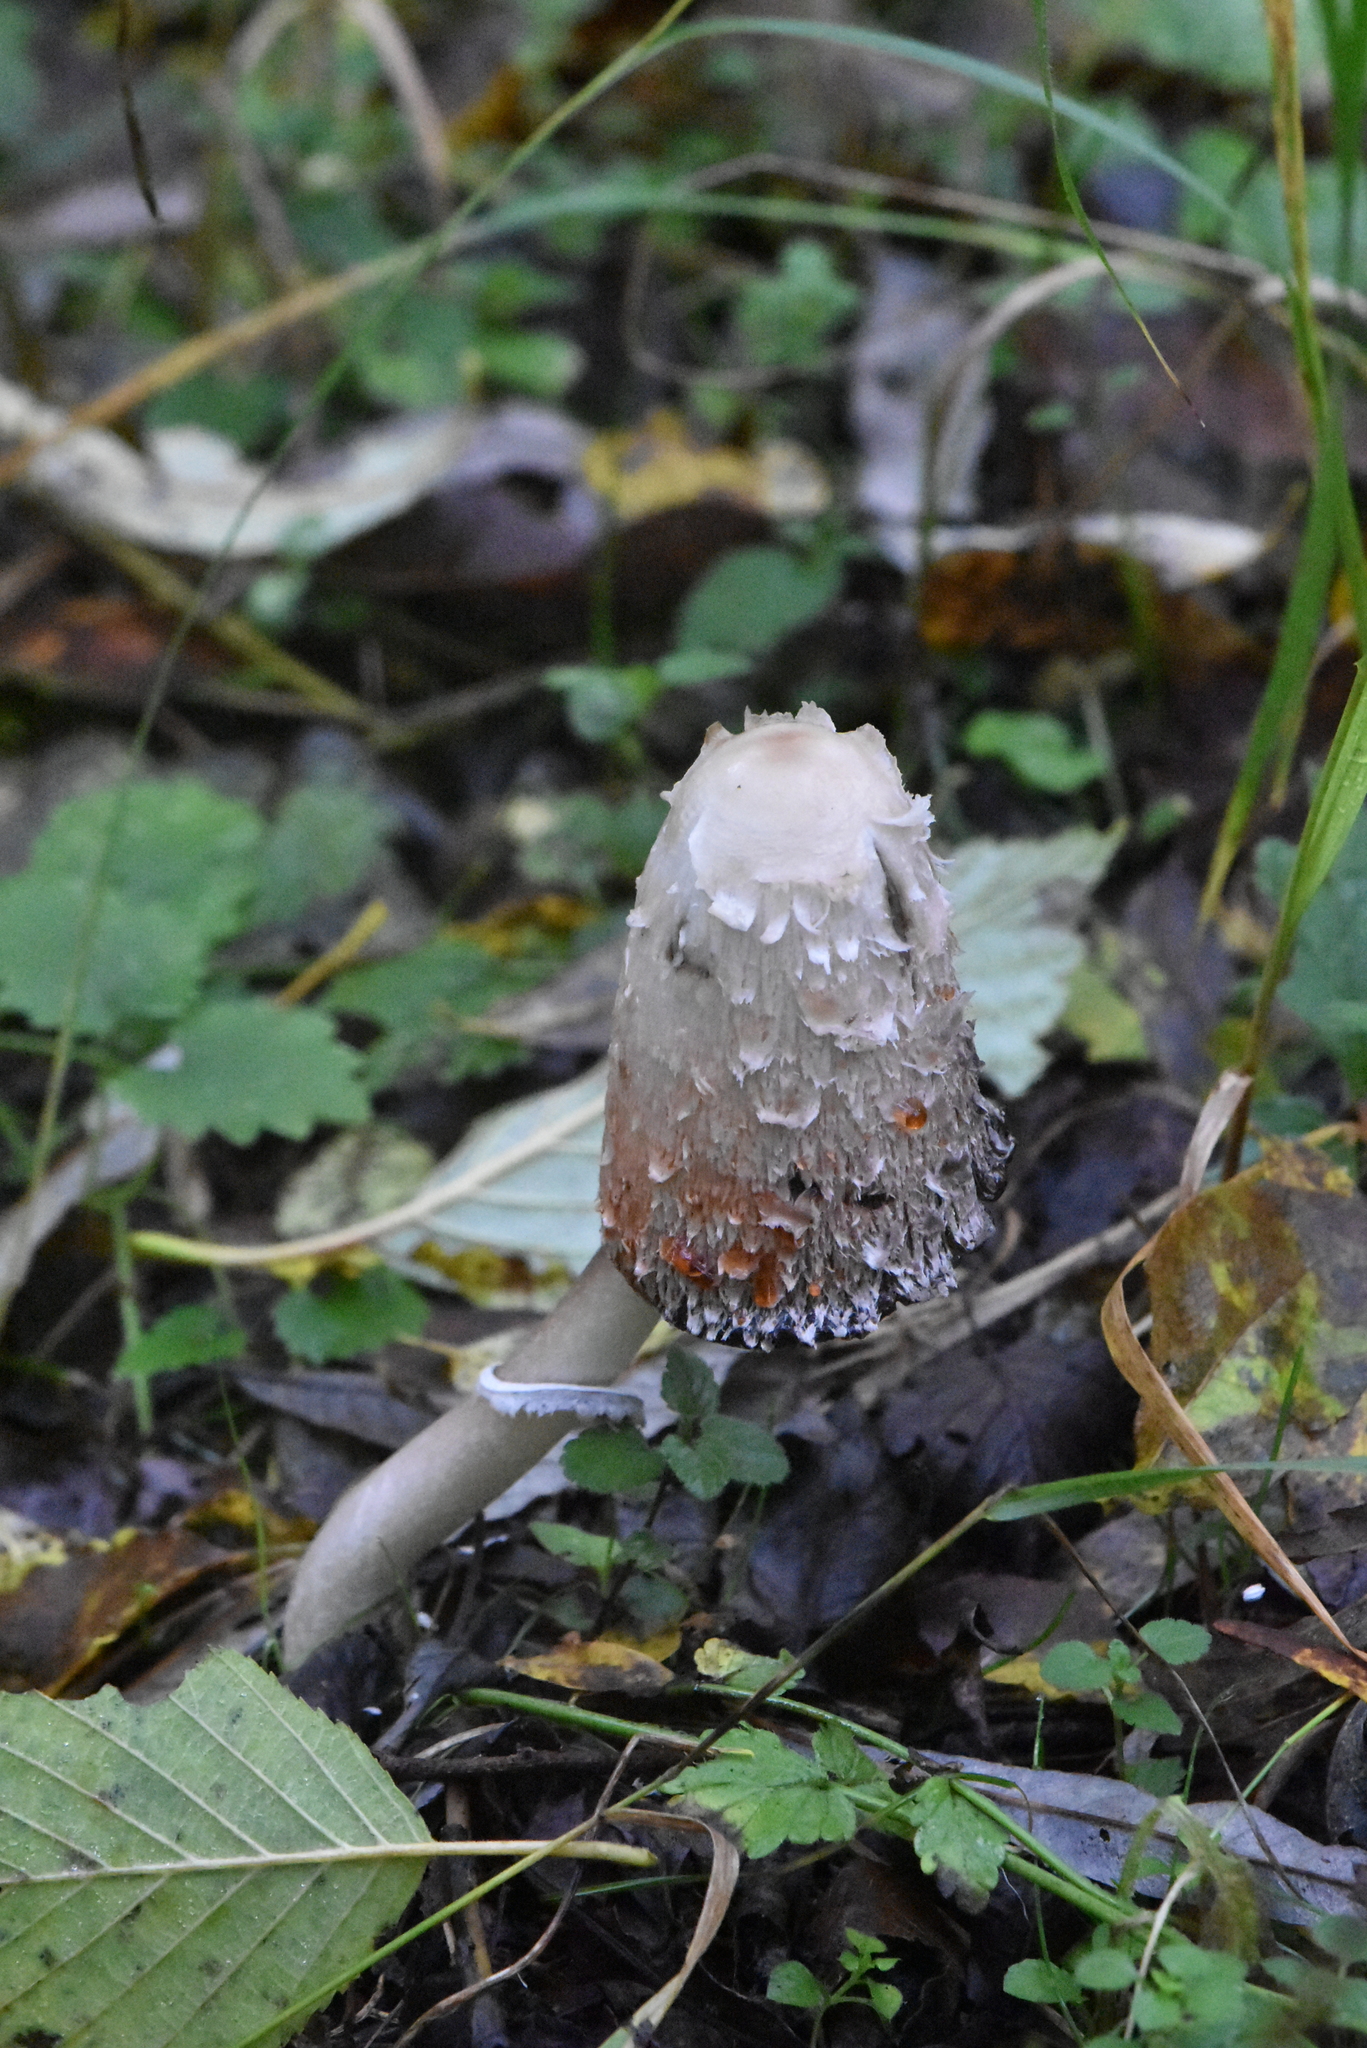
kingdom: Fungi
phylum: Basidiomycota
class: Agaricomycetes
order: Agaricales
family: Agaricaceae
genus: Coprinus
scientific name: Coprinus comatus
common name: Lawyer's wig
